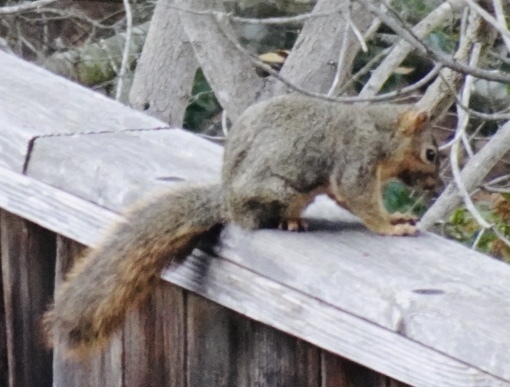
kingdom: Animalia
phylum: Chordata
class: Mammalia
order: Rodentia
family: Sciuridae
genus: Sciurus
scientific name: Sciurus niger
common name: Fox squirrel
